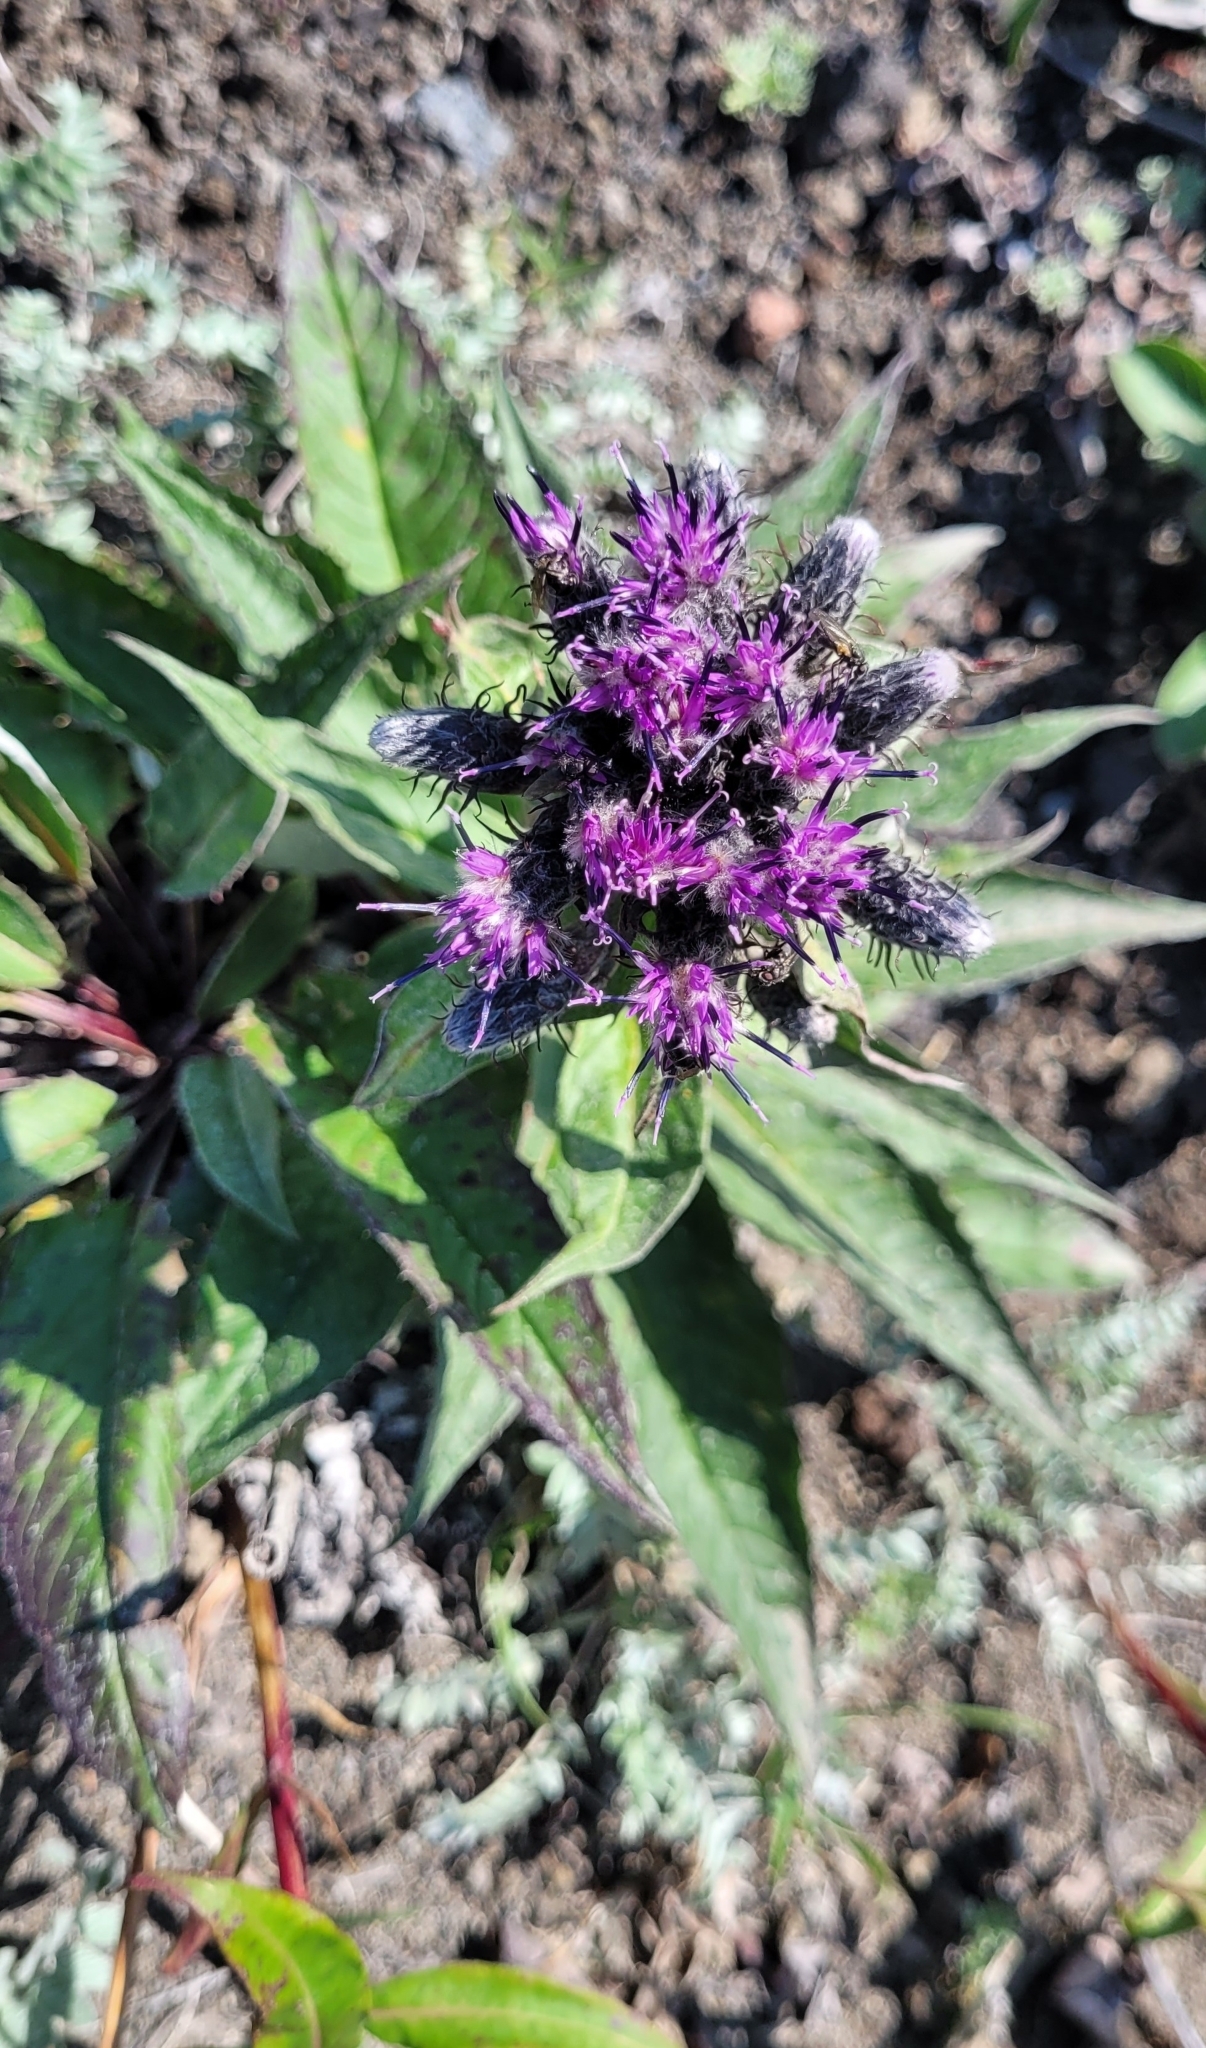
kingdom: Plantae
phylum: Tracheophyta
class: Magnoliopsida
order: Asterales
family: Asteraceae
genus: Saussurea
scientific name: Saussurea pseudotilesii
